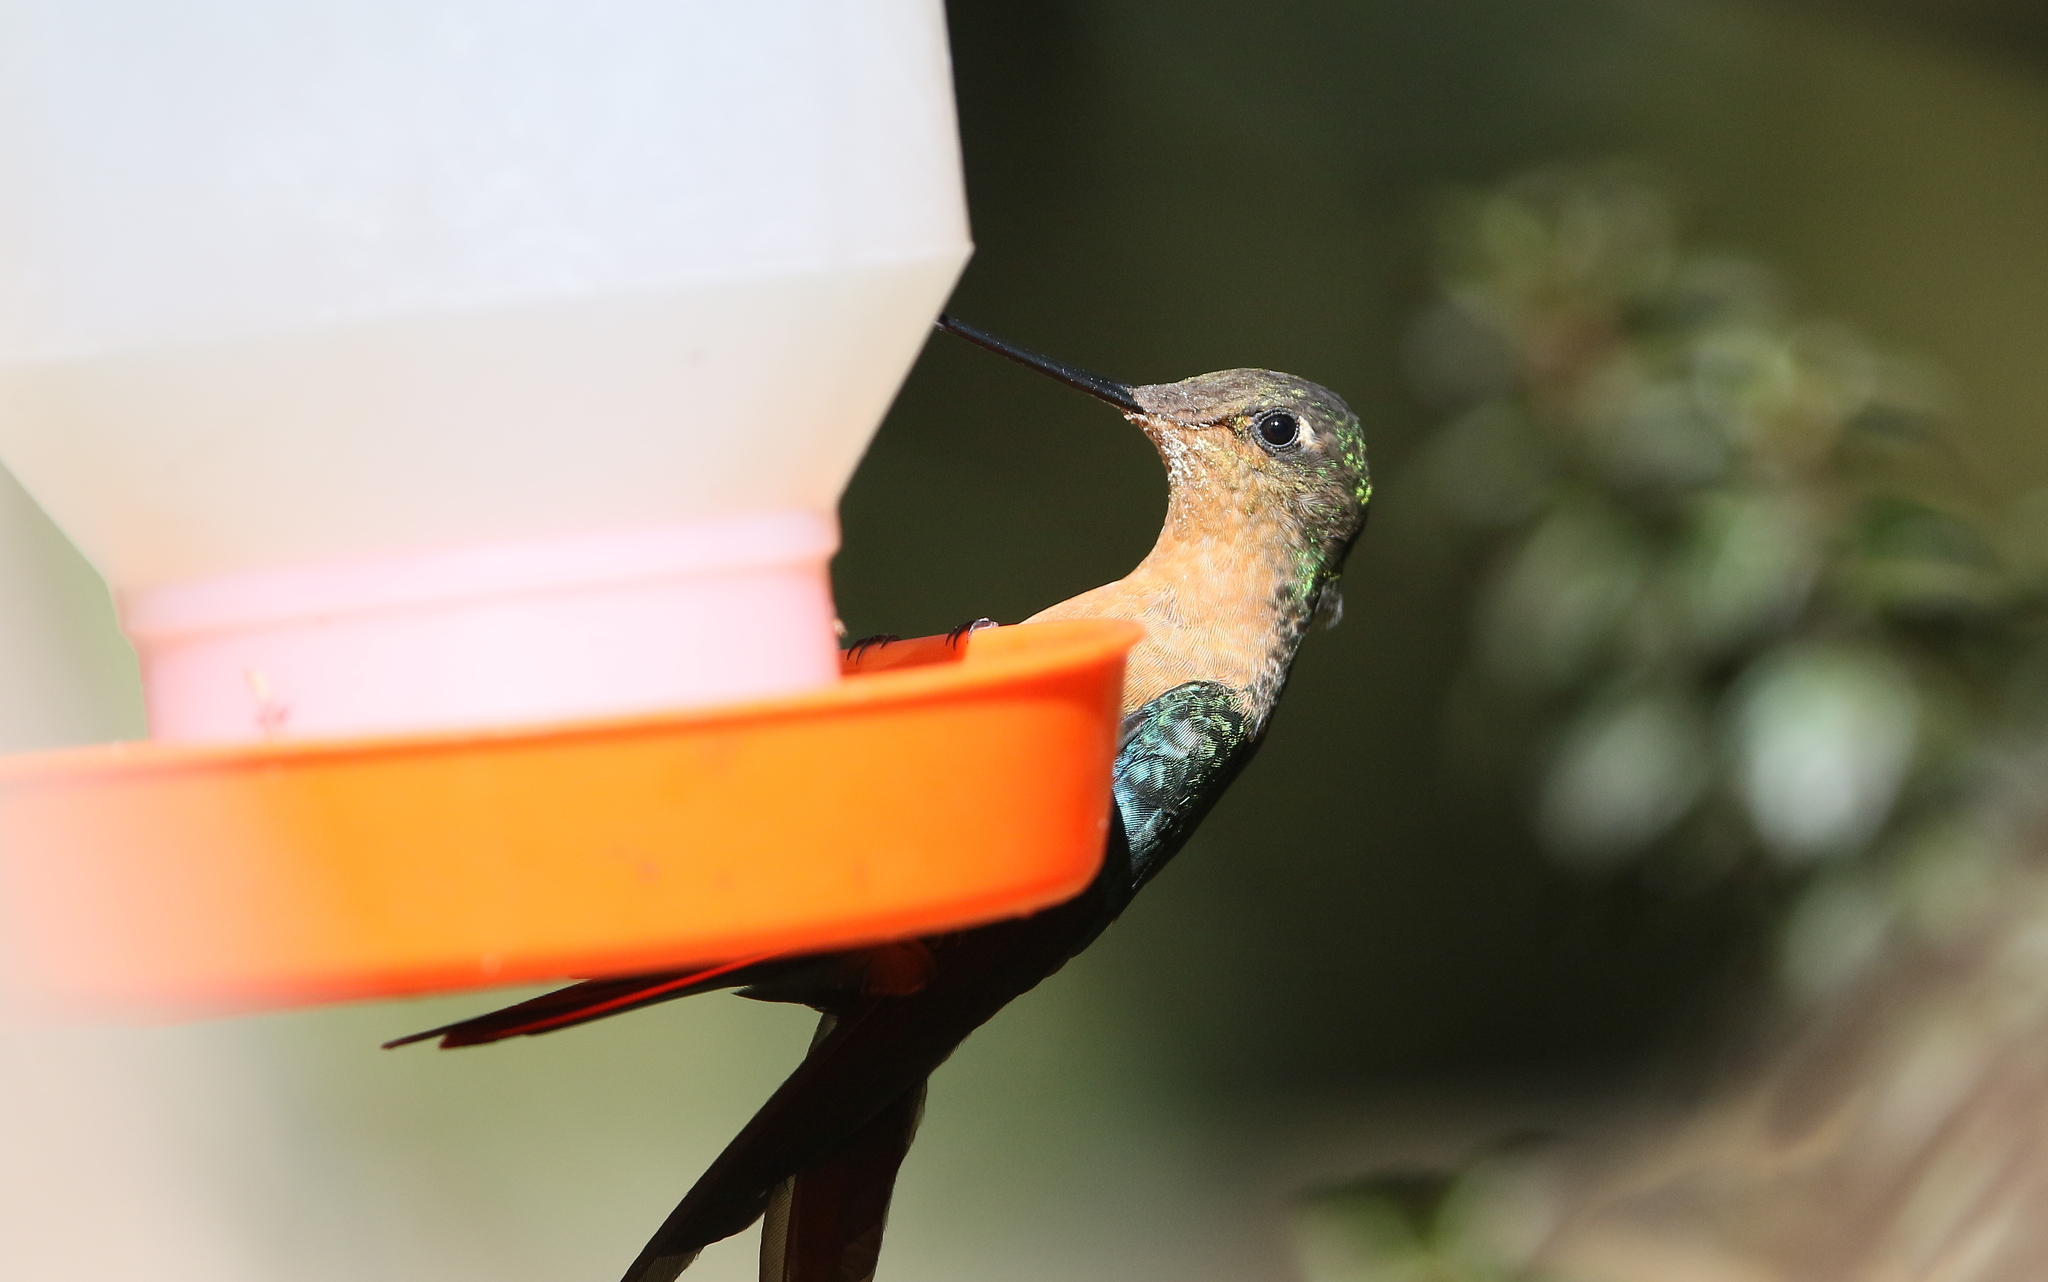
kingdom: Animalia
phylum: Chordata
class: Aves
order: Apodiformes
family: Trochilidae
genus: Pterophanes
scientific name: Pterophanes cyanopterus
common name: Great sapphirewing
